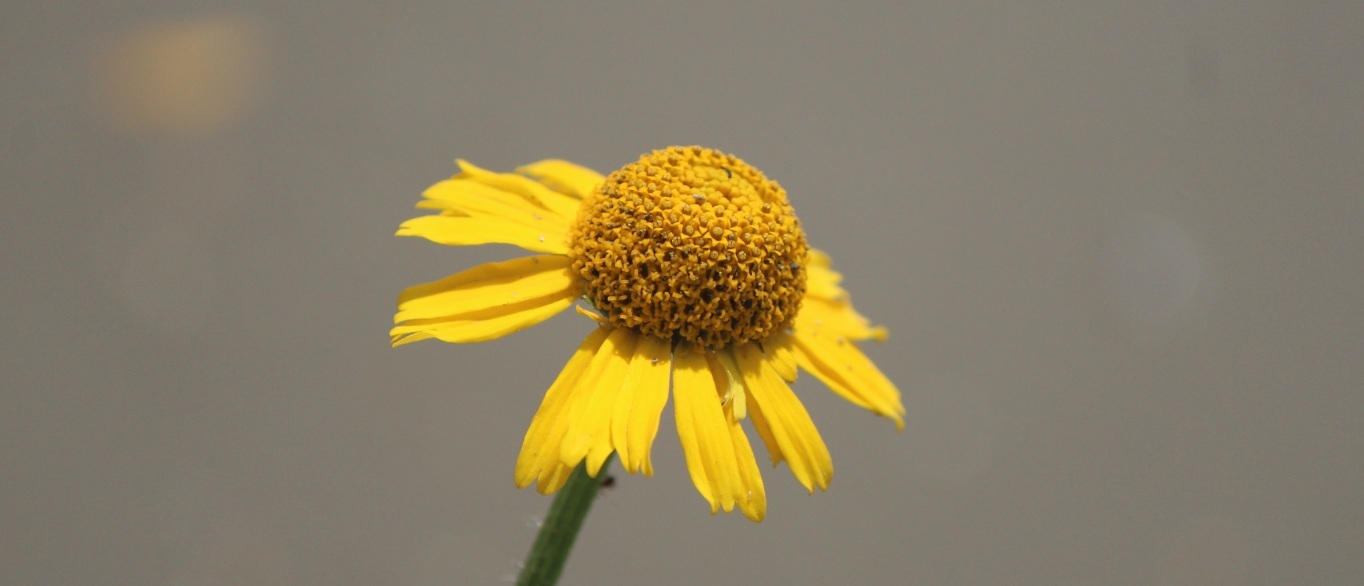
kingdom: Plantae
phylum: Tracheophyta
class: Magnoliopsida
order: Asterales
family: Asteraceae
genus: Hybridella
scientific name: Hybridella globosa
